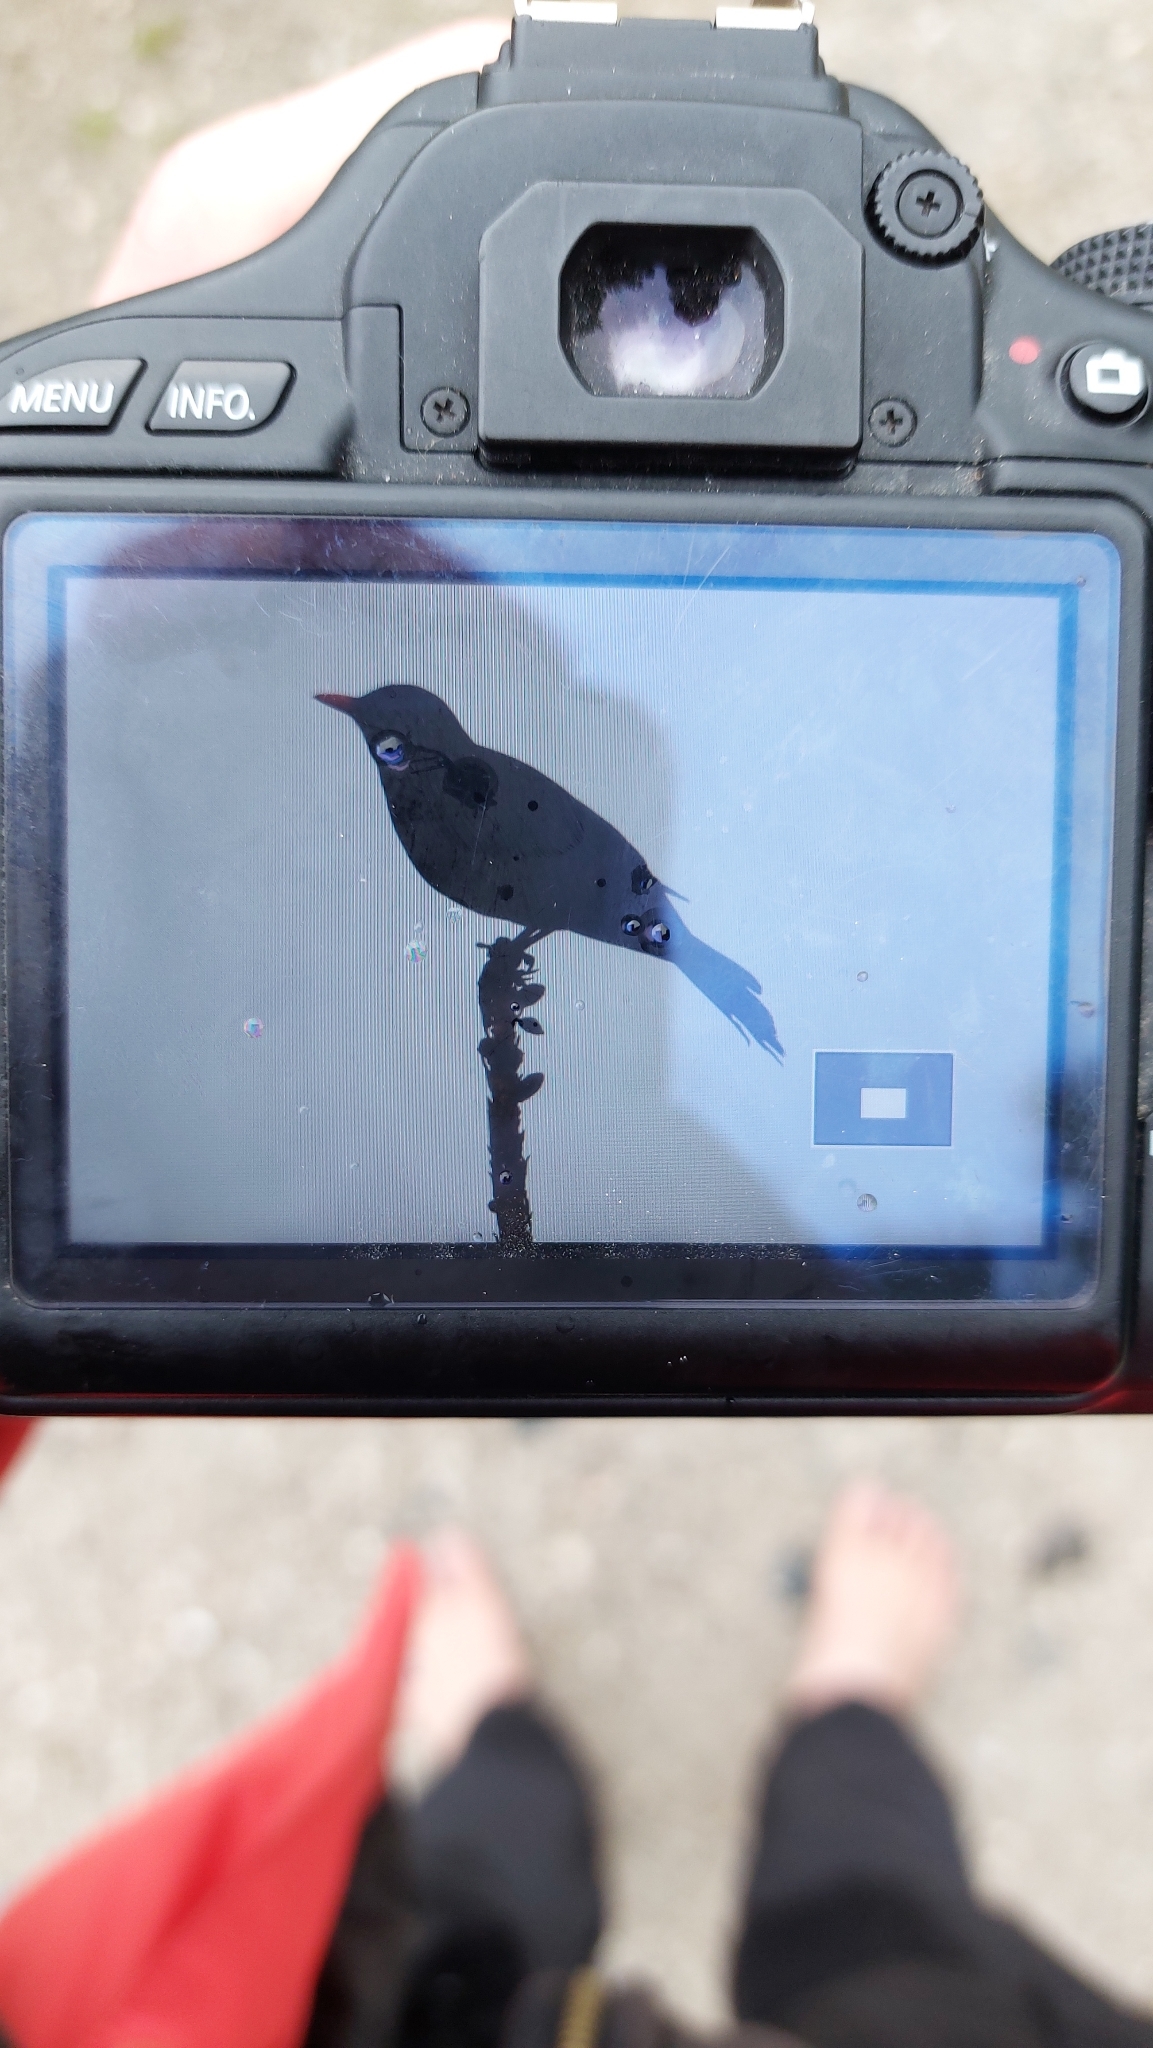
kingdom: Animalia
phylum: Chordata
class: Aves
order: Passeriformes
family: Turdidae
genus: Turdus
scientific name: Turdus merula
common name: Common blackbird
